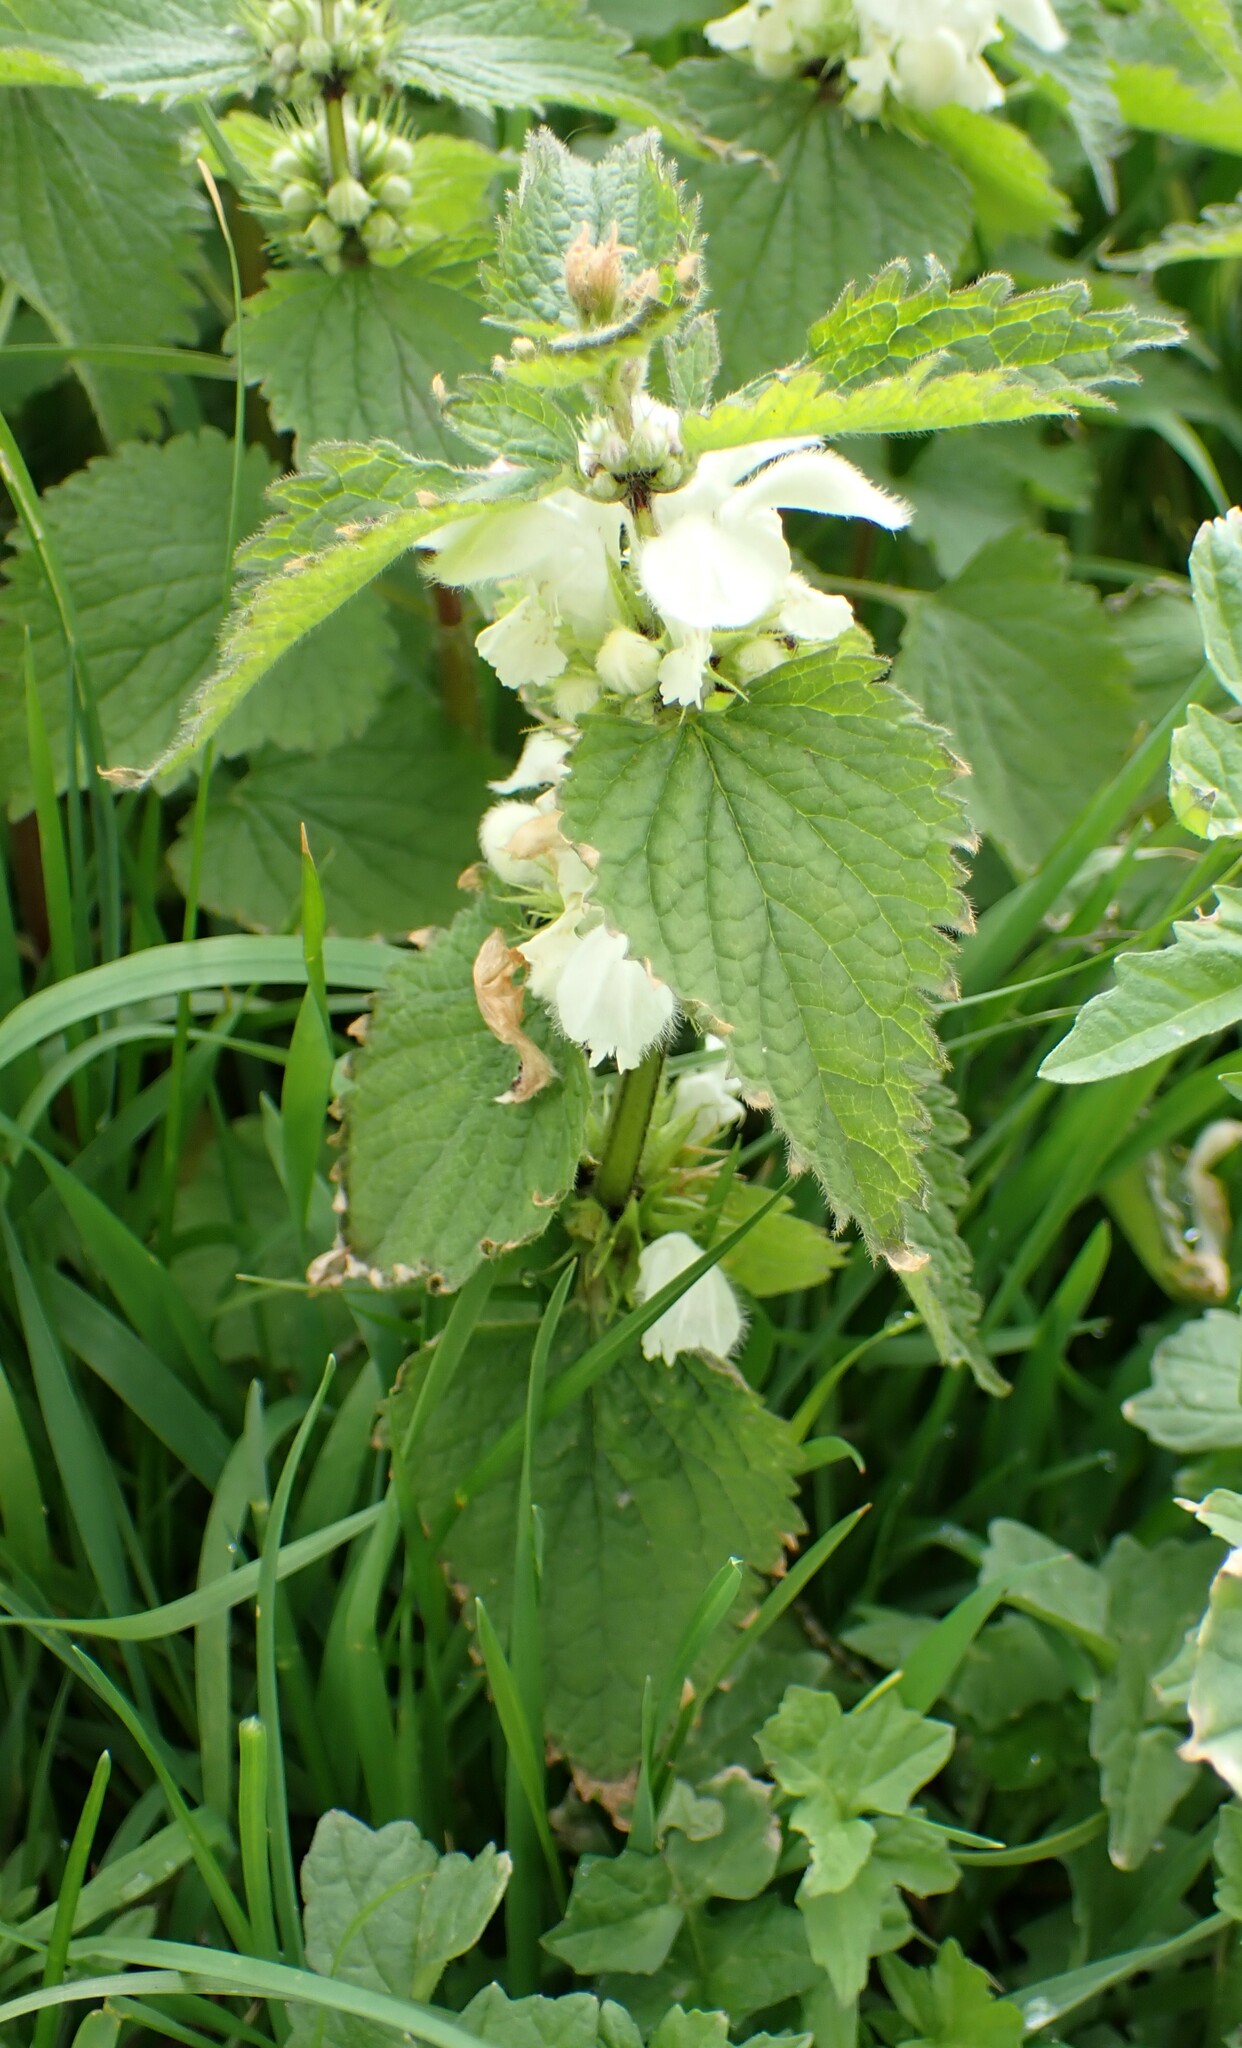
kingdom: Plantae
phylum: Tracheophyta
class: Magnoliopsida
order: Lamiales
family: Lamiaceae
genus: Lamium
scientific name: Lamium album
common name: White dead-nettle
